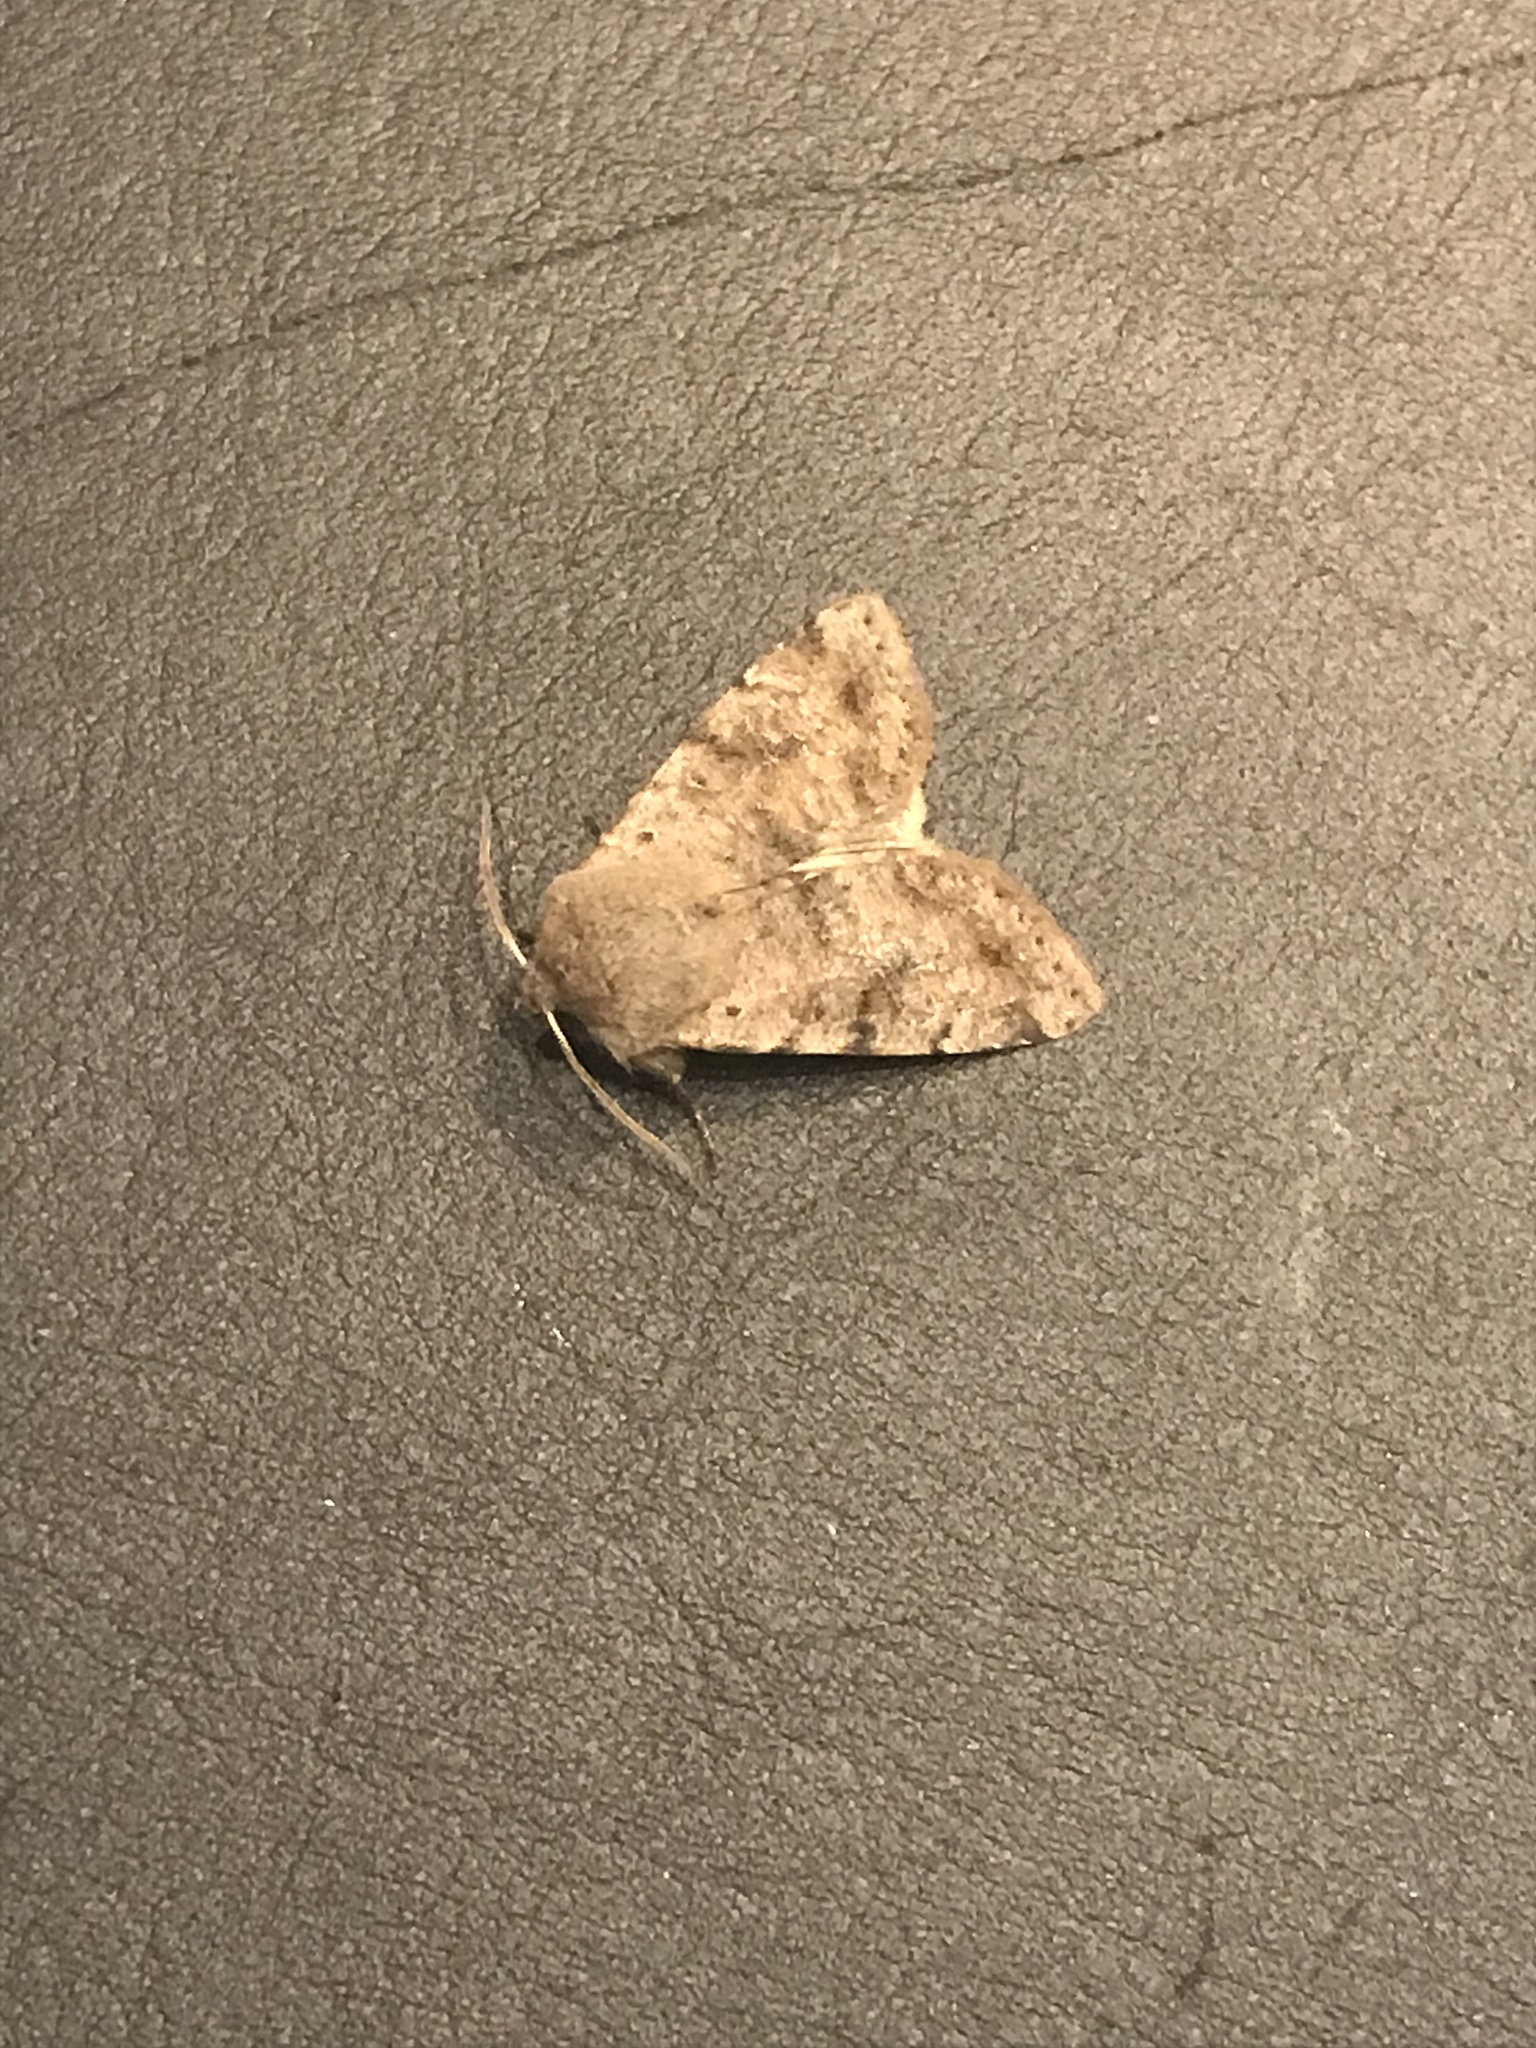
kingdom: Animalia
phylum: Arthropoda
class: Insecta
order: Lepidoptera
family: Noctuidae
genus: Orthosia
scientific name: Orthosia incerta
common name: Clouded drab
